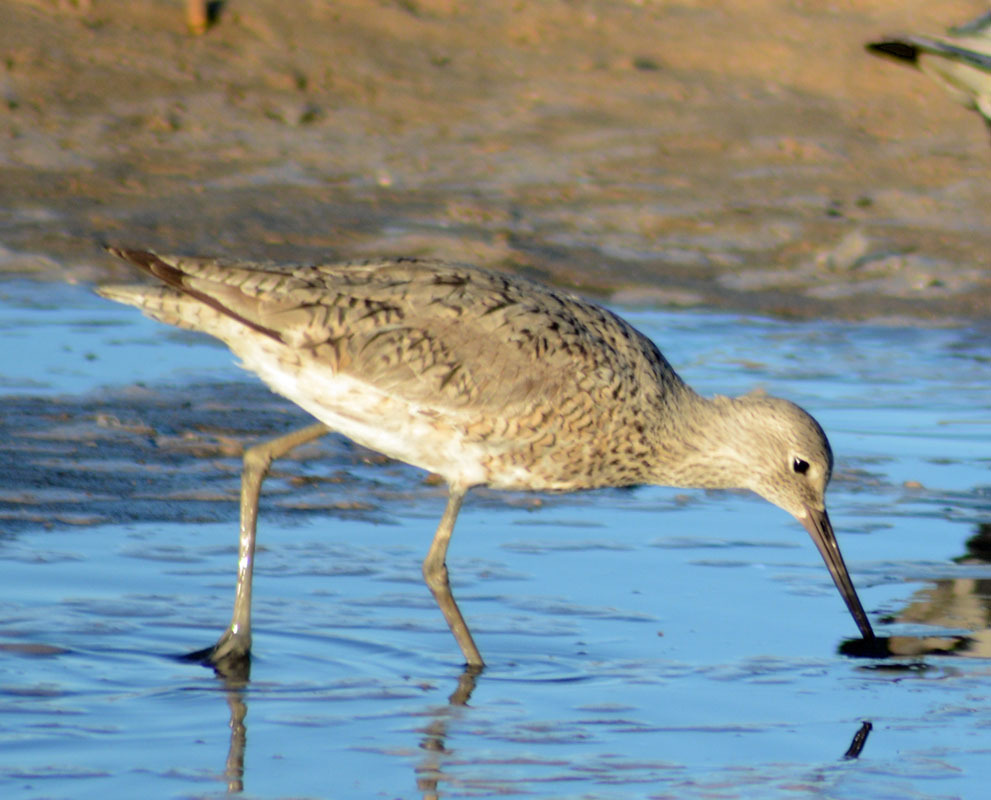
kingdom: Animalia
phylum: Chordata
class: Aves
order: Charadriiformes
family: Scolopacidae
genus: Tringa
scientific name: Tringa semipalmata
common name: Willet
